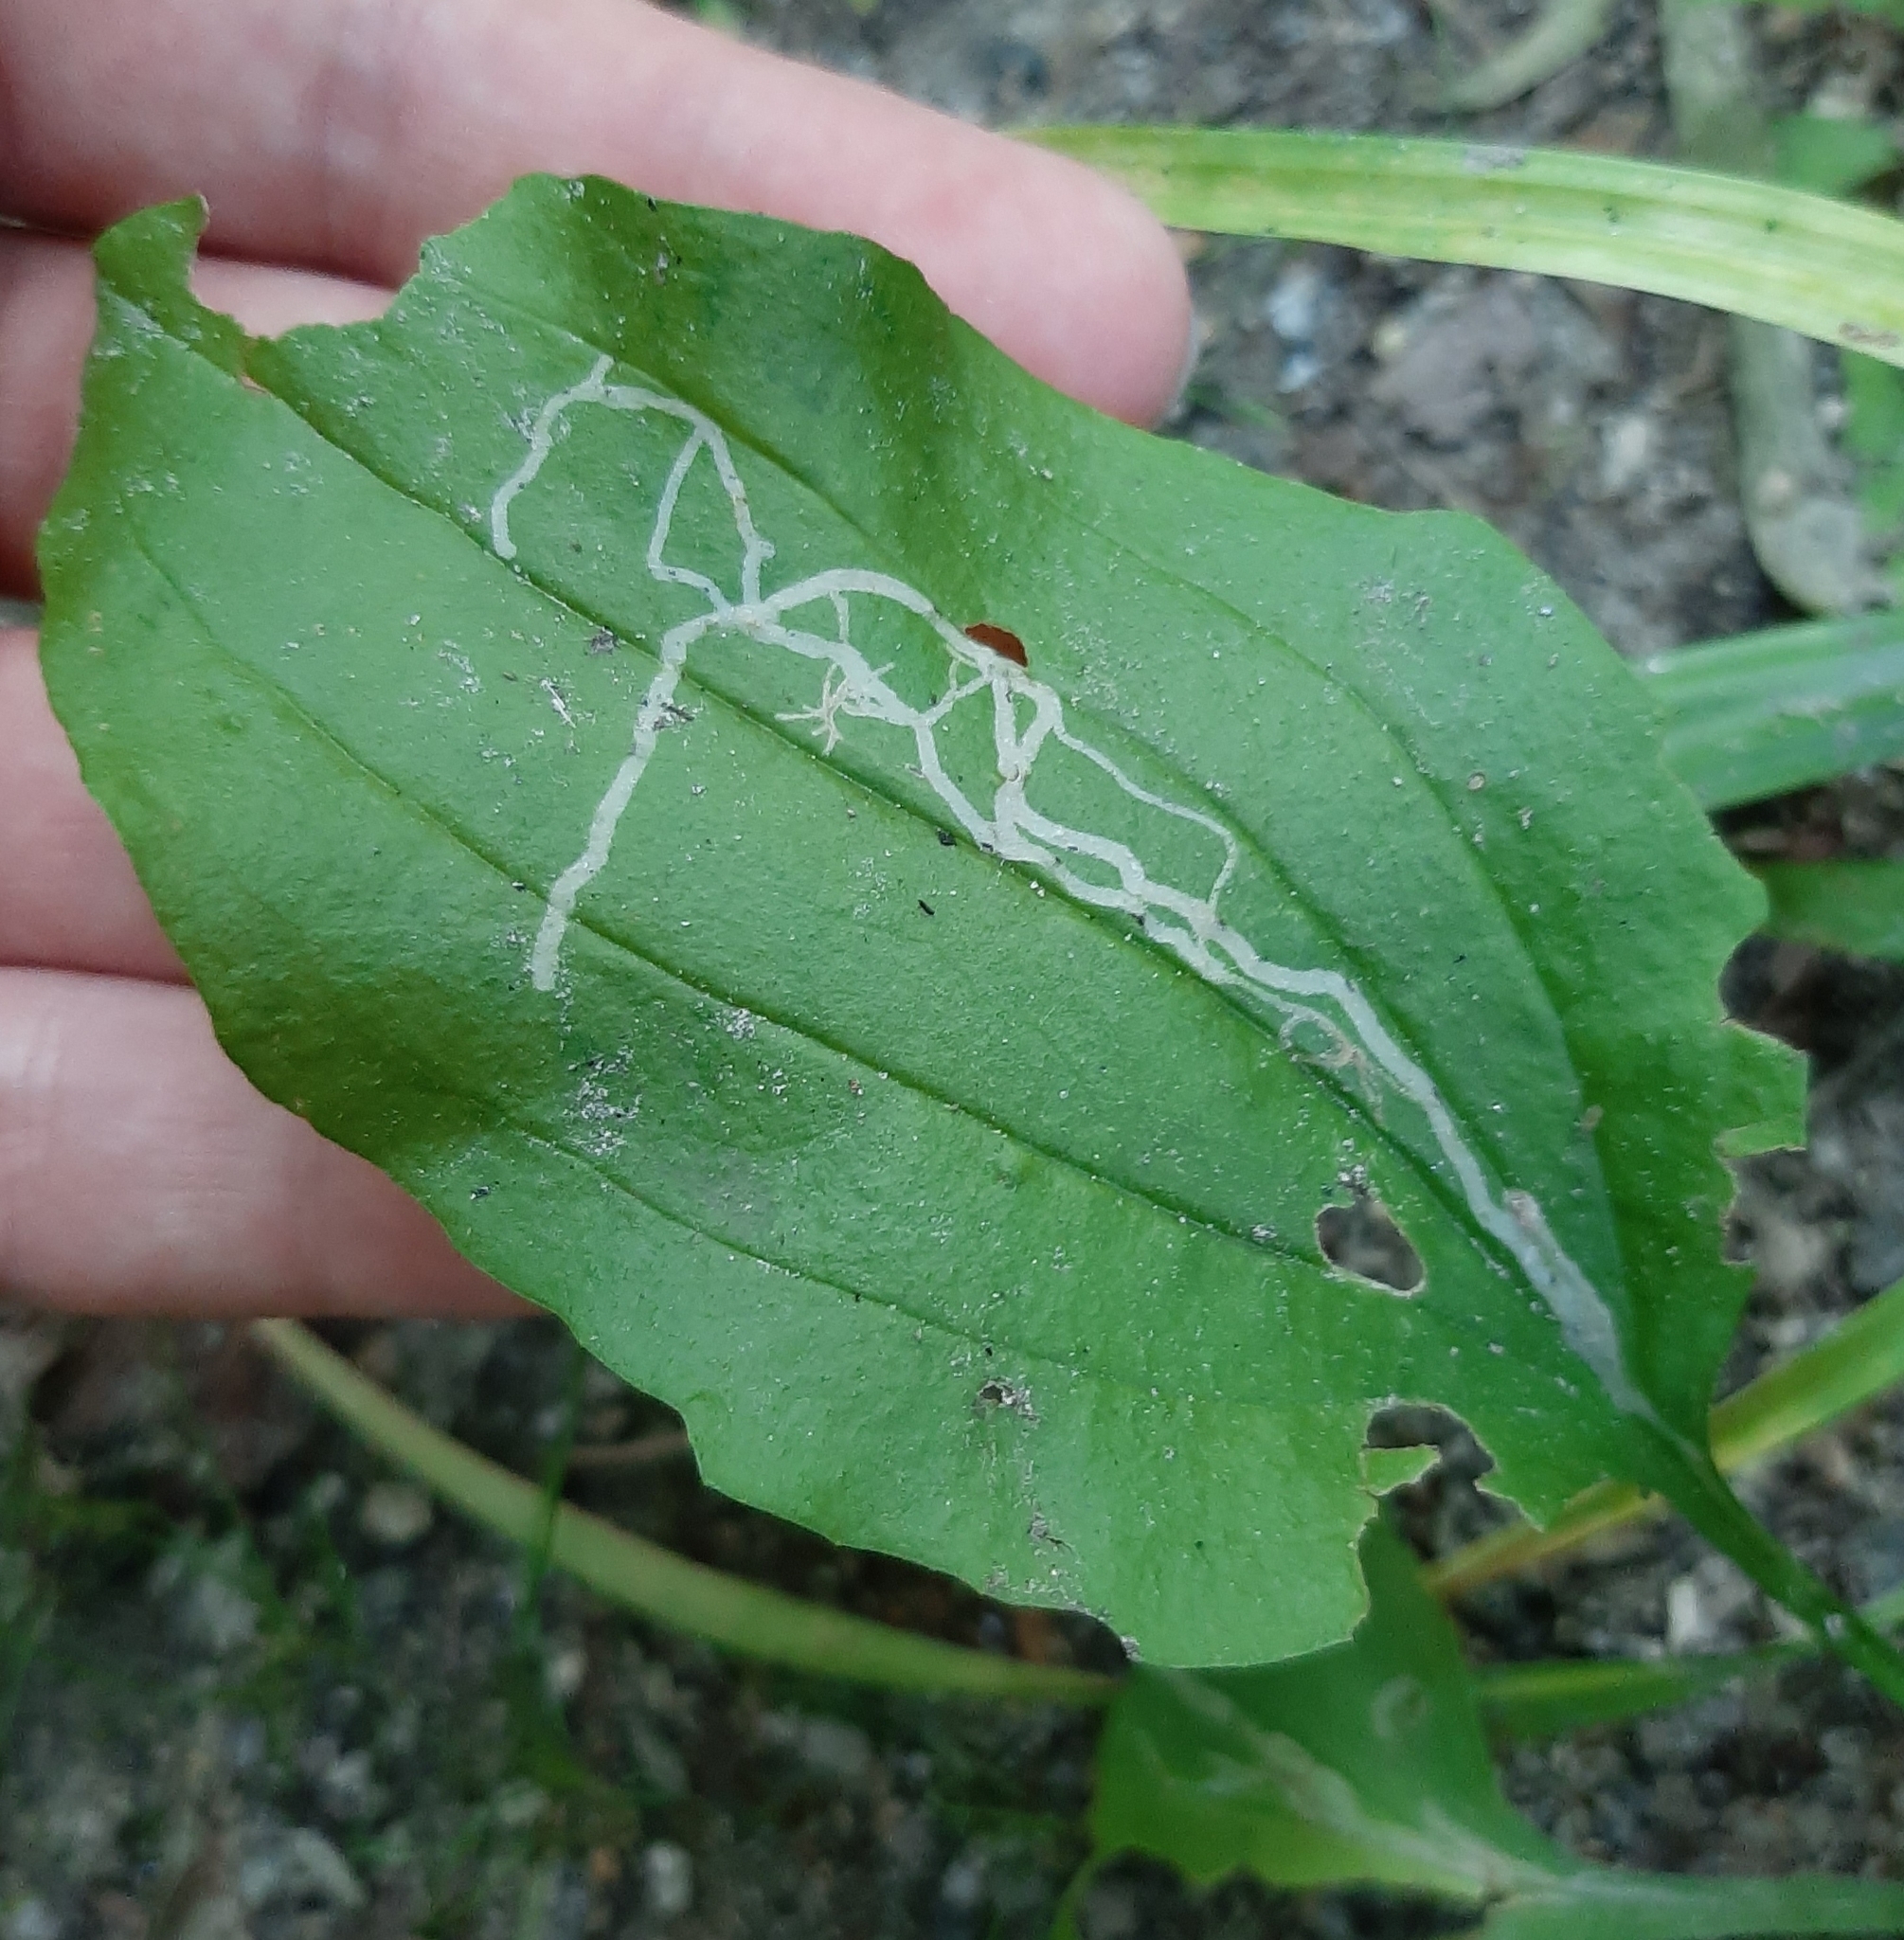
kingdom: Animalia
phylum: Arthropoda
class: Insecta
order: Diptera
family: Agromyzidae
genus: Phytomyza
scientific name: Phytomyza plantaginis
